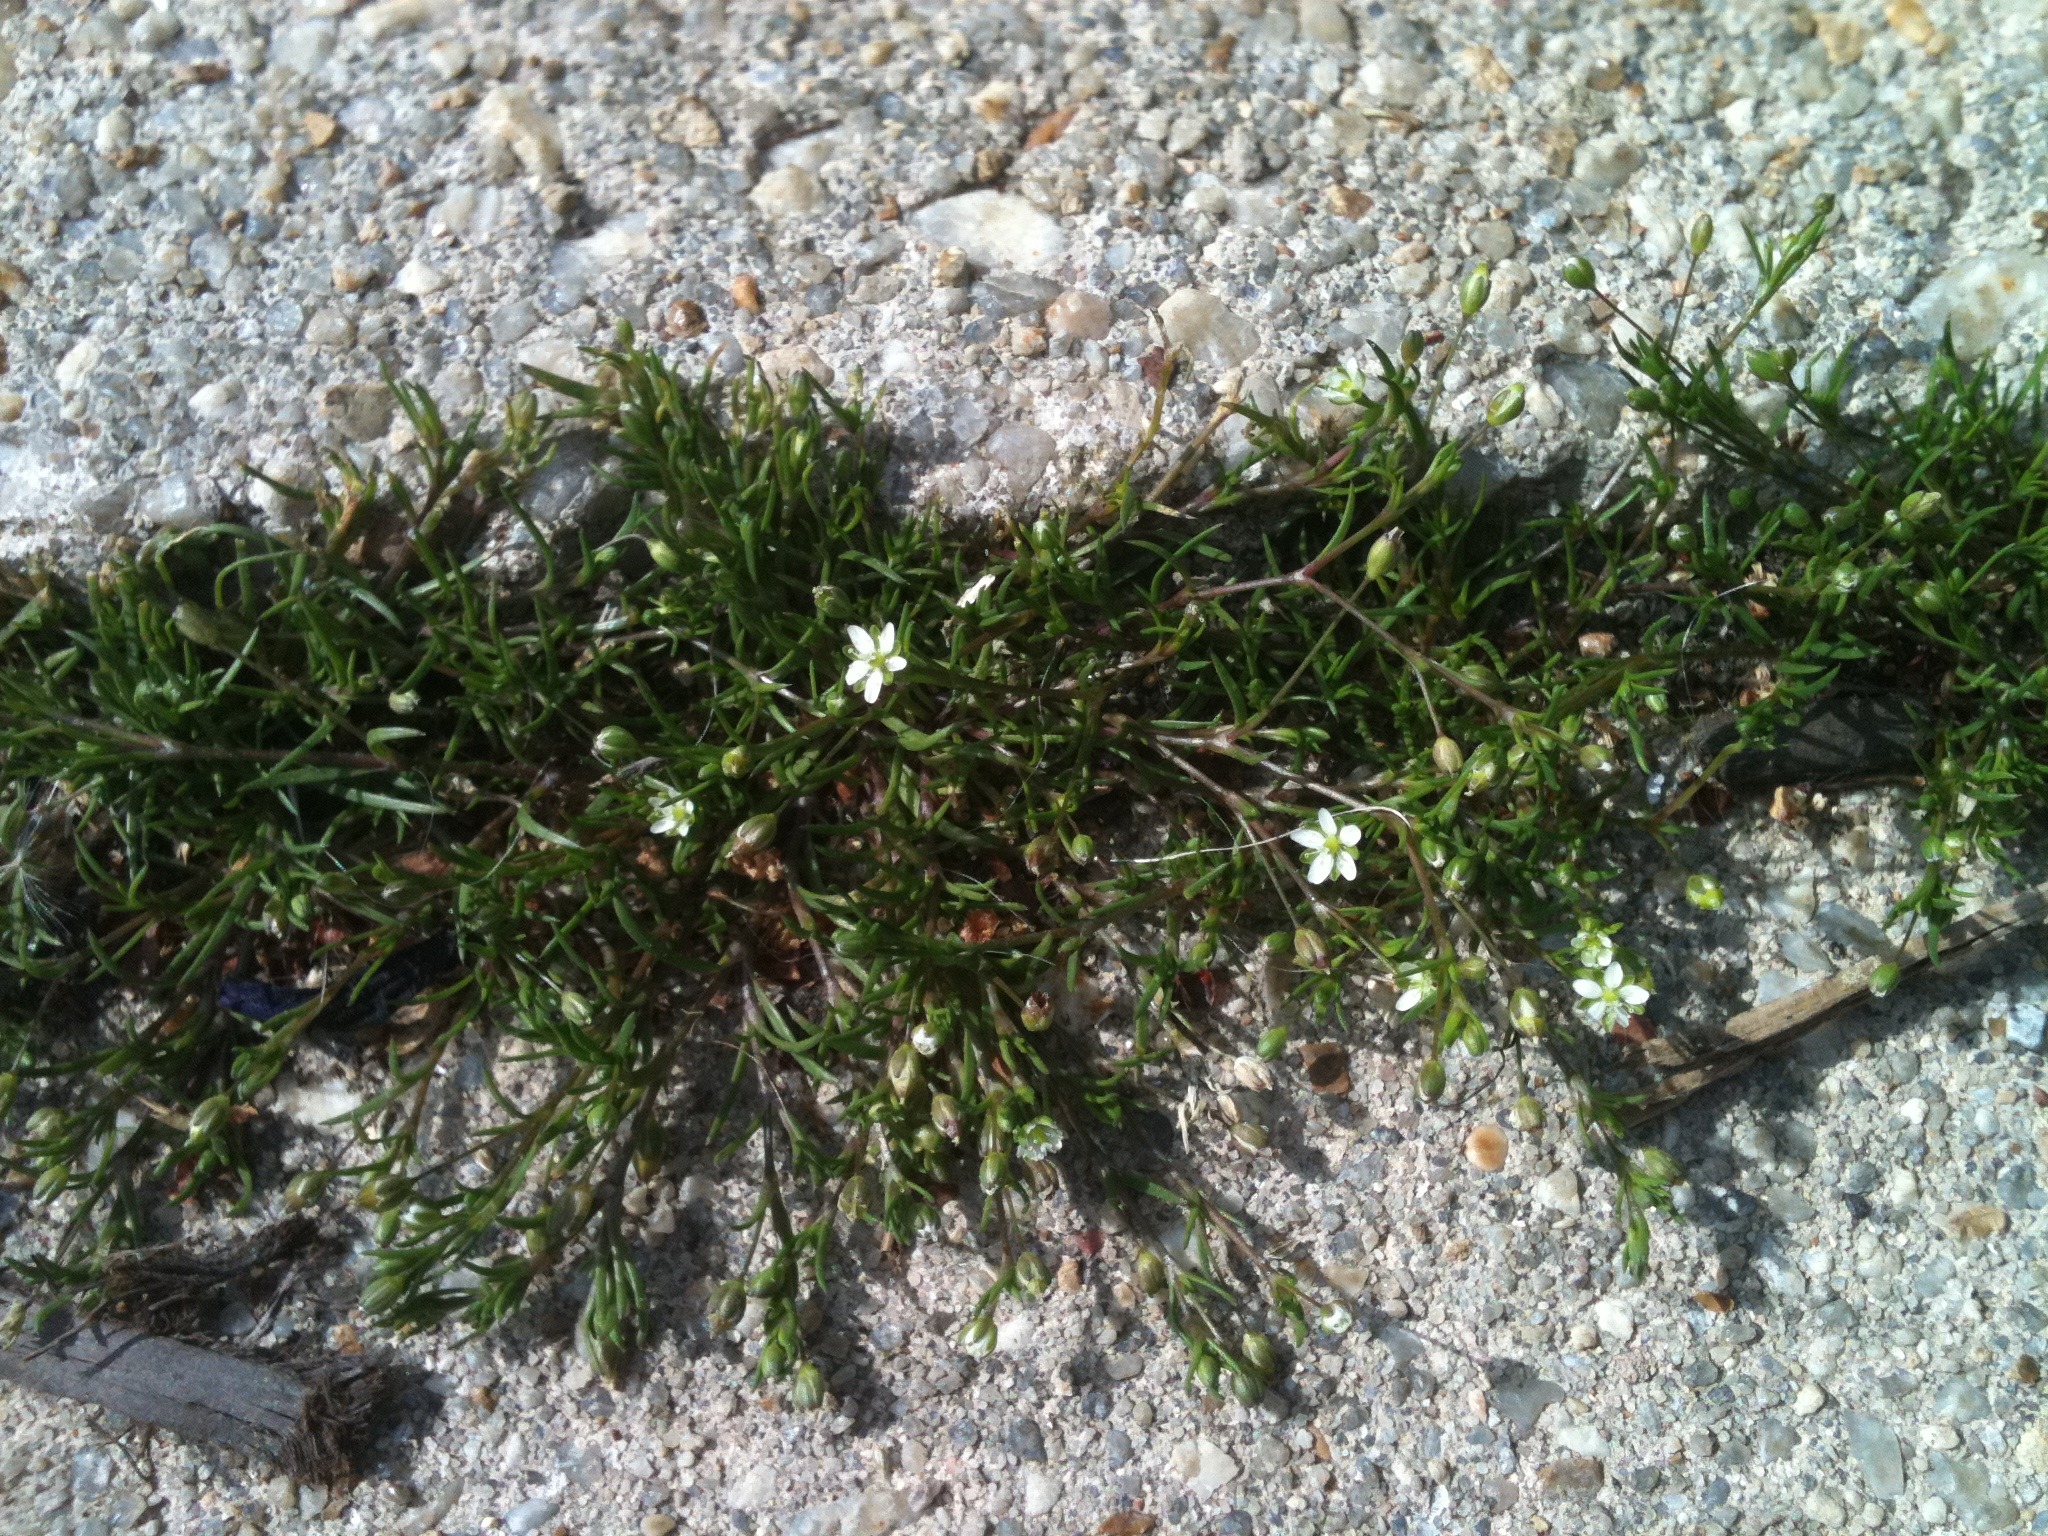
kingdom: Plantae
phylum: Tracheophyta
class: Magnoliopsida
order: Caryophyllales
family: Caryophyllaceae
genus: Sagina
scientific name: Sagina decumbens
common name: Decumbent pearlwort
